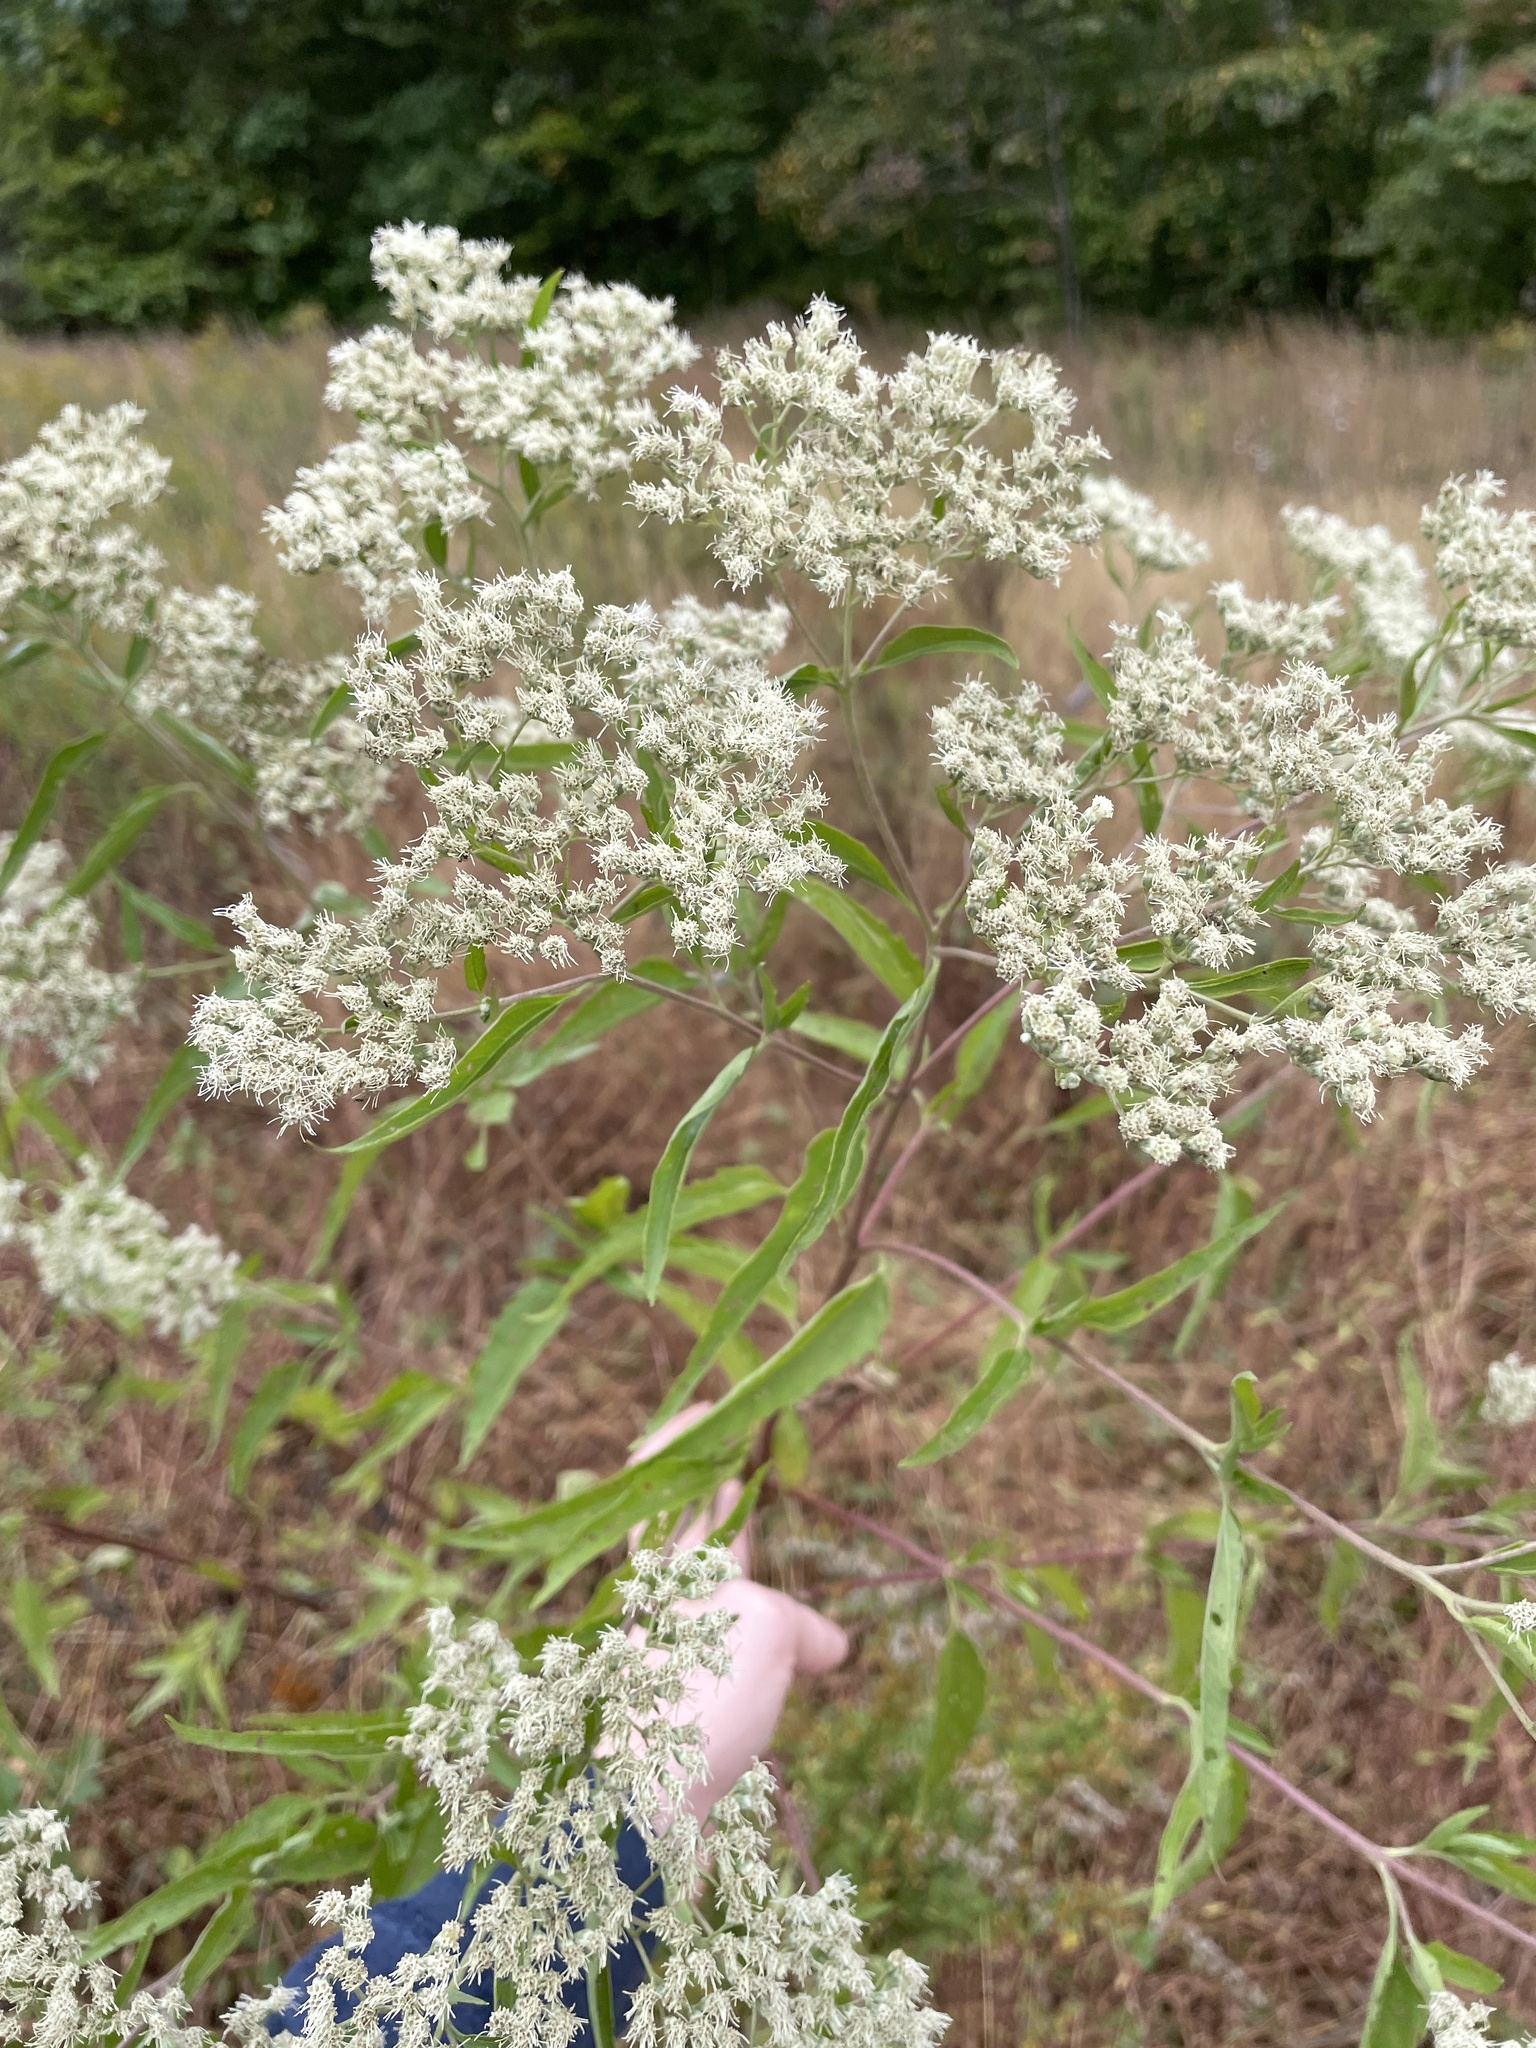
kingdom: Plantae
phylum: Tracheophyta
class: Magnoliopsida
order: Asterales
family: Asteraceae
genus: Eupatorium
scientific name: Eupatorium serotinum
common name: Late boneset
